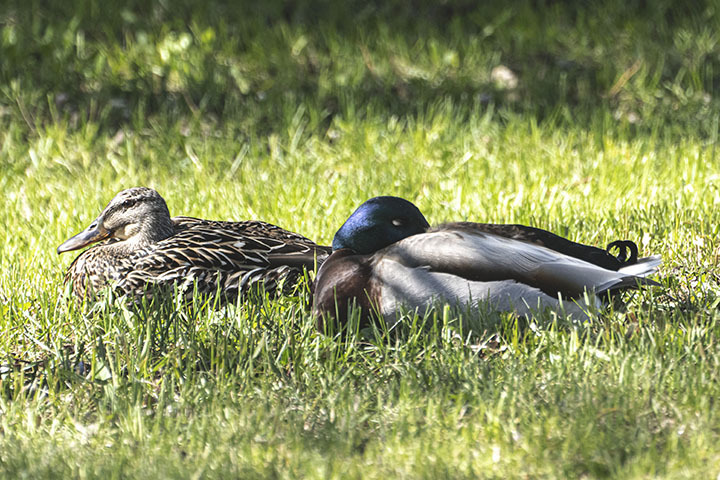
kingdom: Animalia
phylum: Chordata
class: Aves
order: Anseriformes
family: Anatidae
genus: Anas
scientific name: Anas platyrhynchos
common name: Mallard
